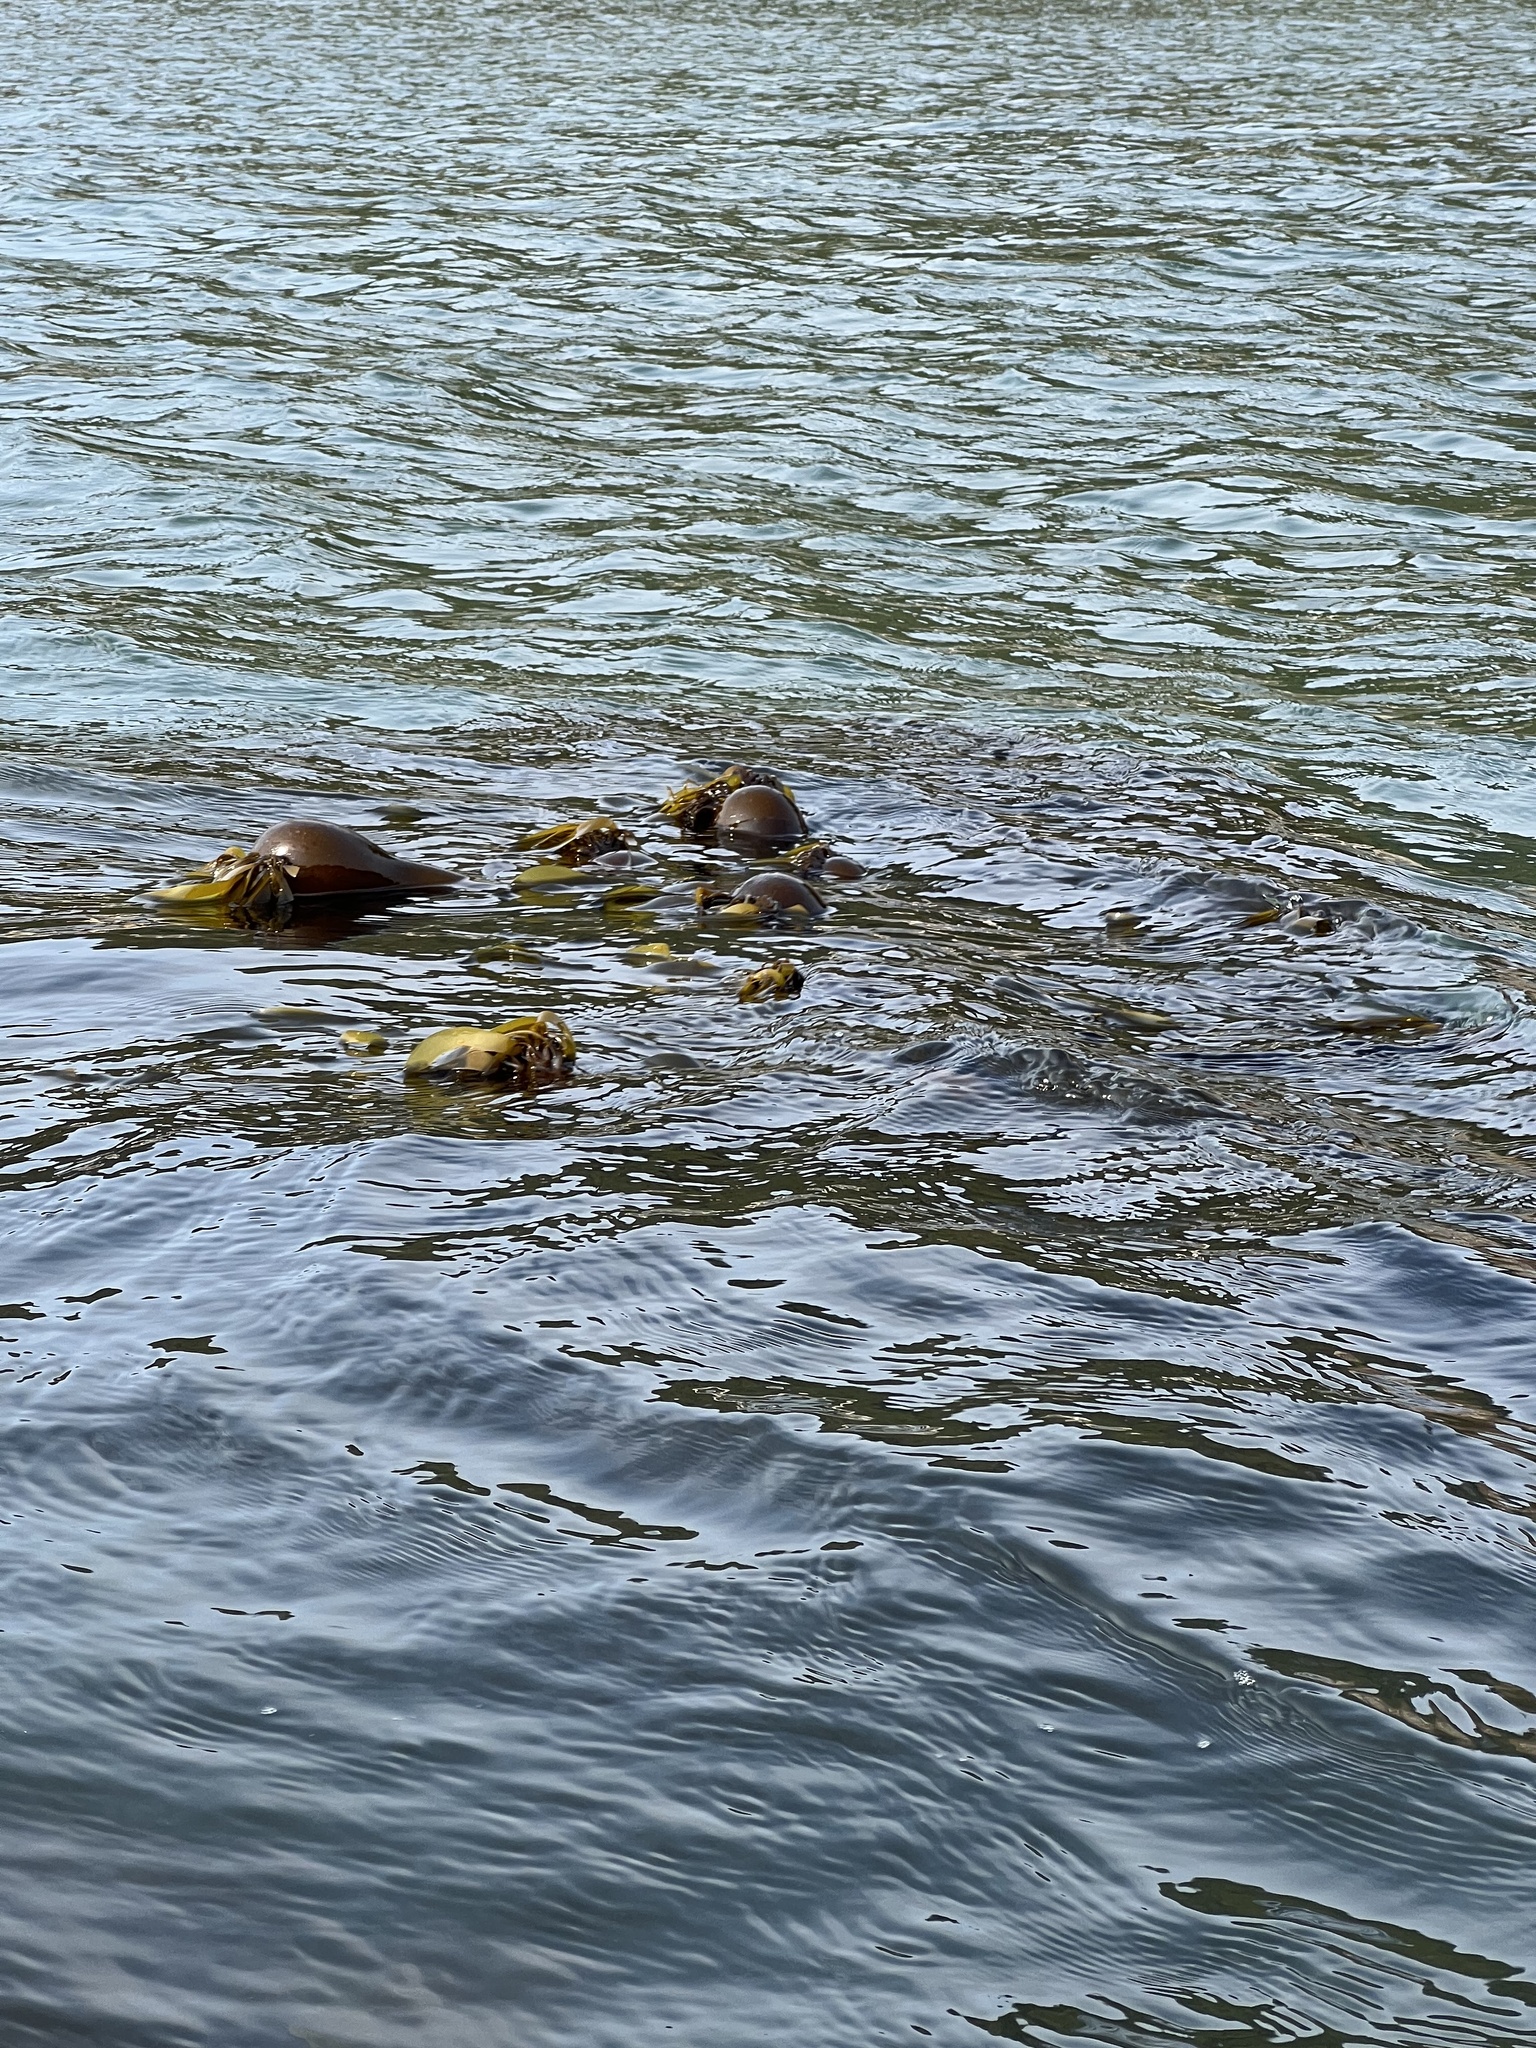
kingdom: Chromista
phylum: Ochrophyta
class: Phaeophyceae
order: Laminariales
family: Laminariaceae
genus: Nereocystis
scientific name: Nereocystis luetkeana
